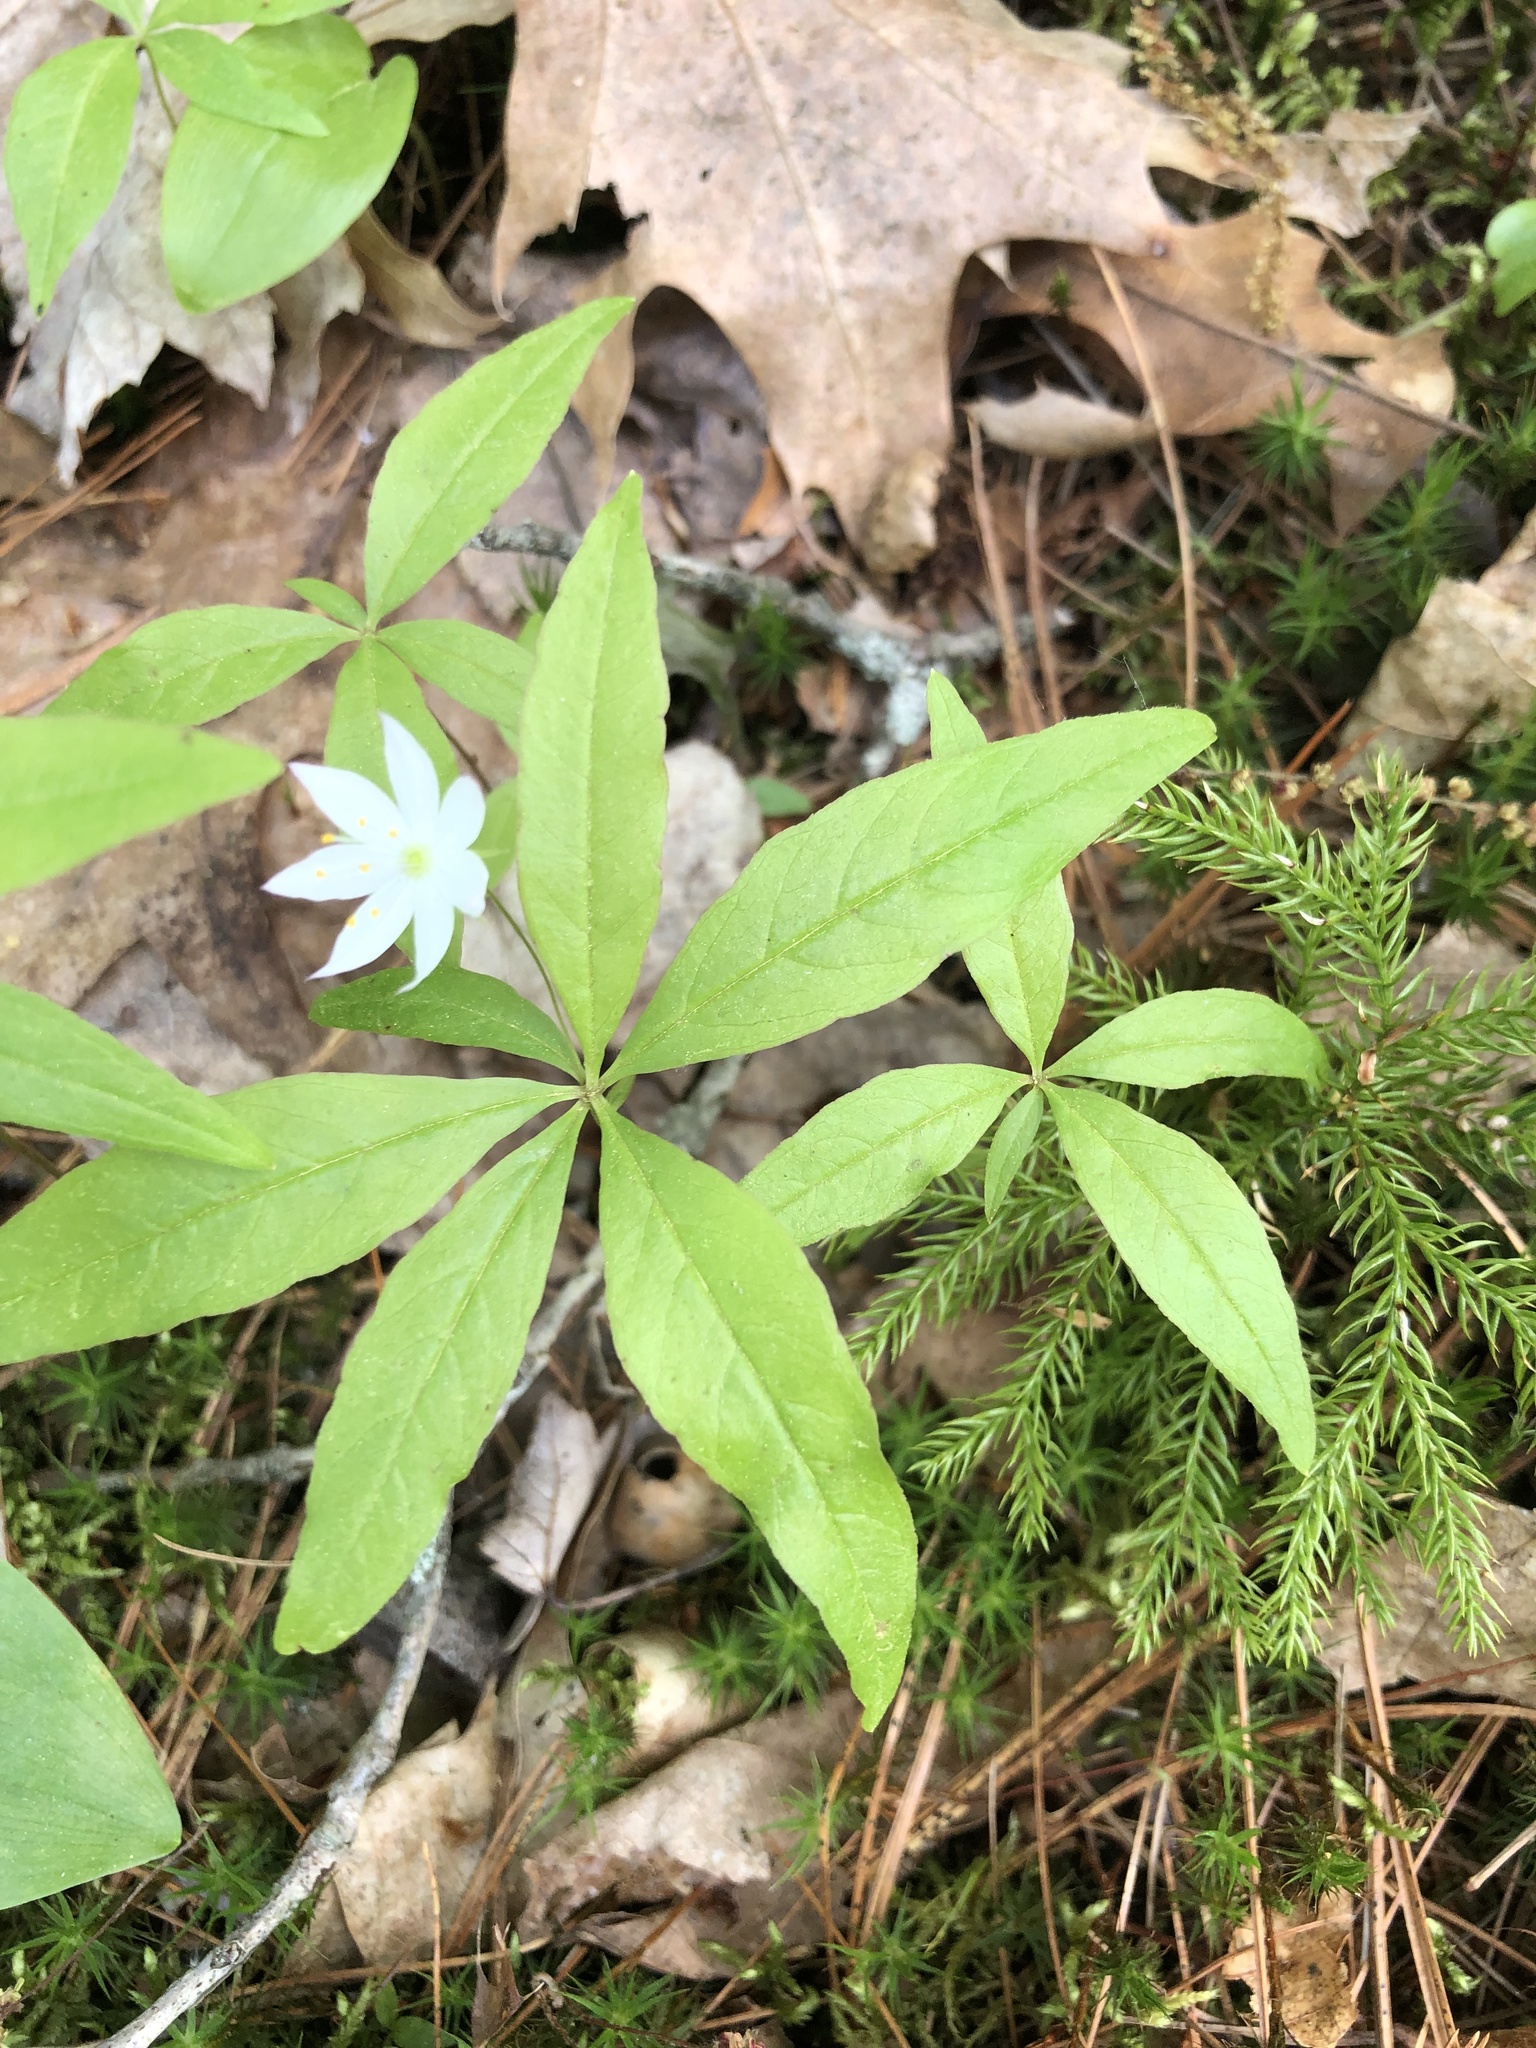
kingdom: Plantae
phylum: Tracheophyta
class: Magnoliopsida
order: Ericales
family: Primulaceae
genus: Lysimachia
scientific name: Lysimachia borealis
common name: American starflower
